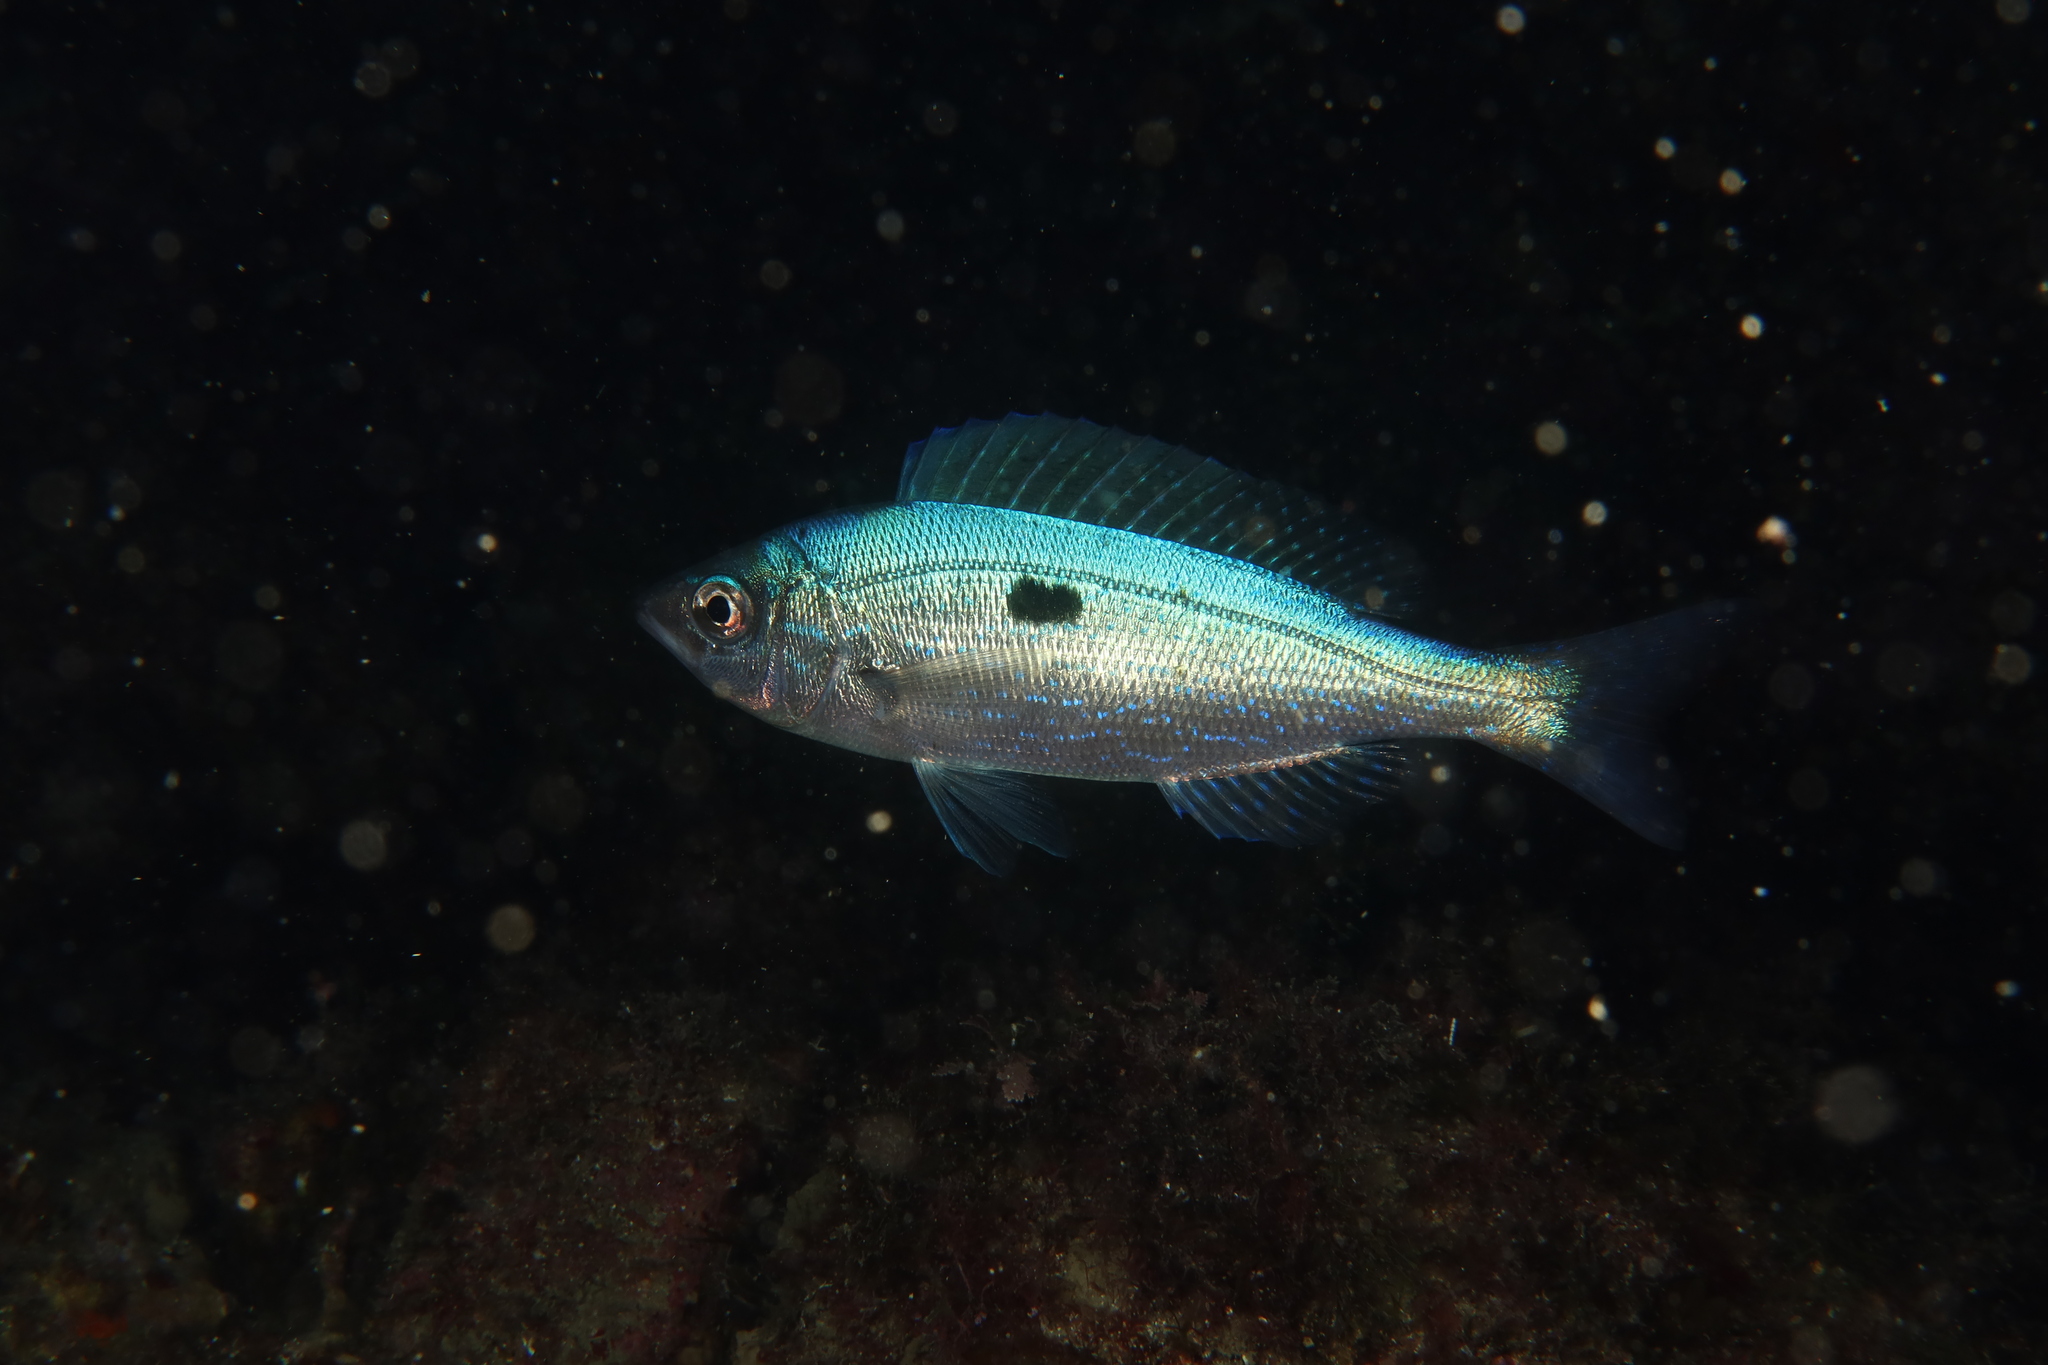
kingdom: Animalia
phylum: Chordata
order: Perciformes
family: Sparidae
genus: Spicara
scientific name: Spicara maena
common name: Blotched picarel
